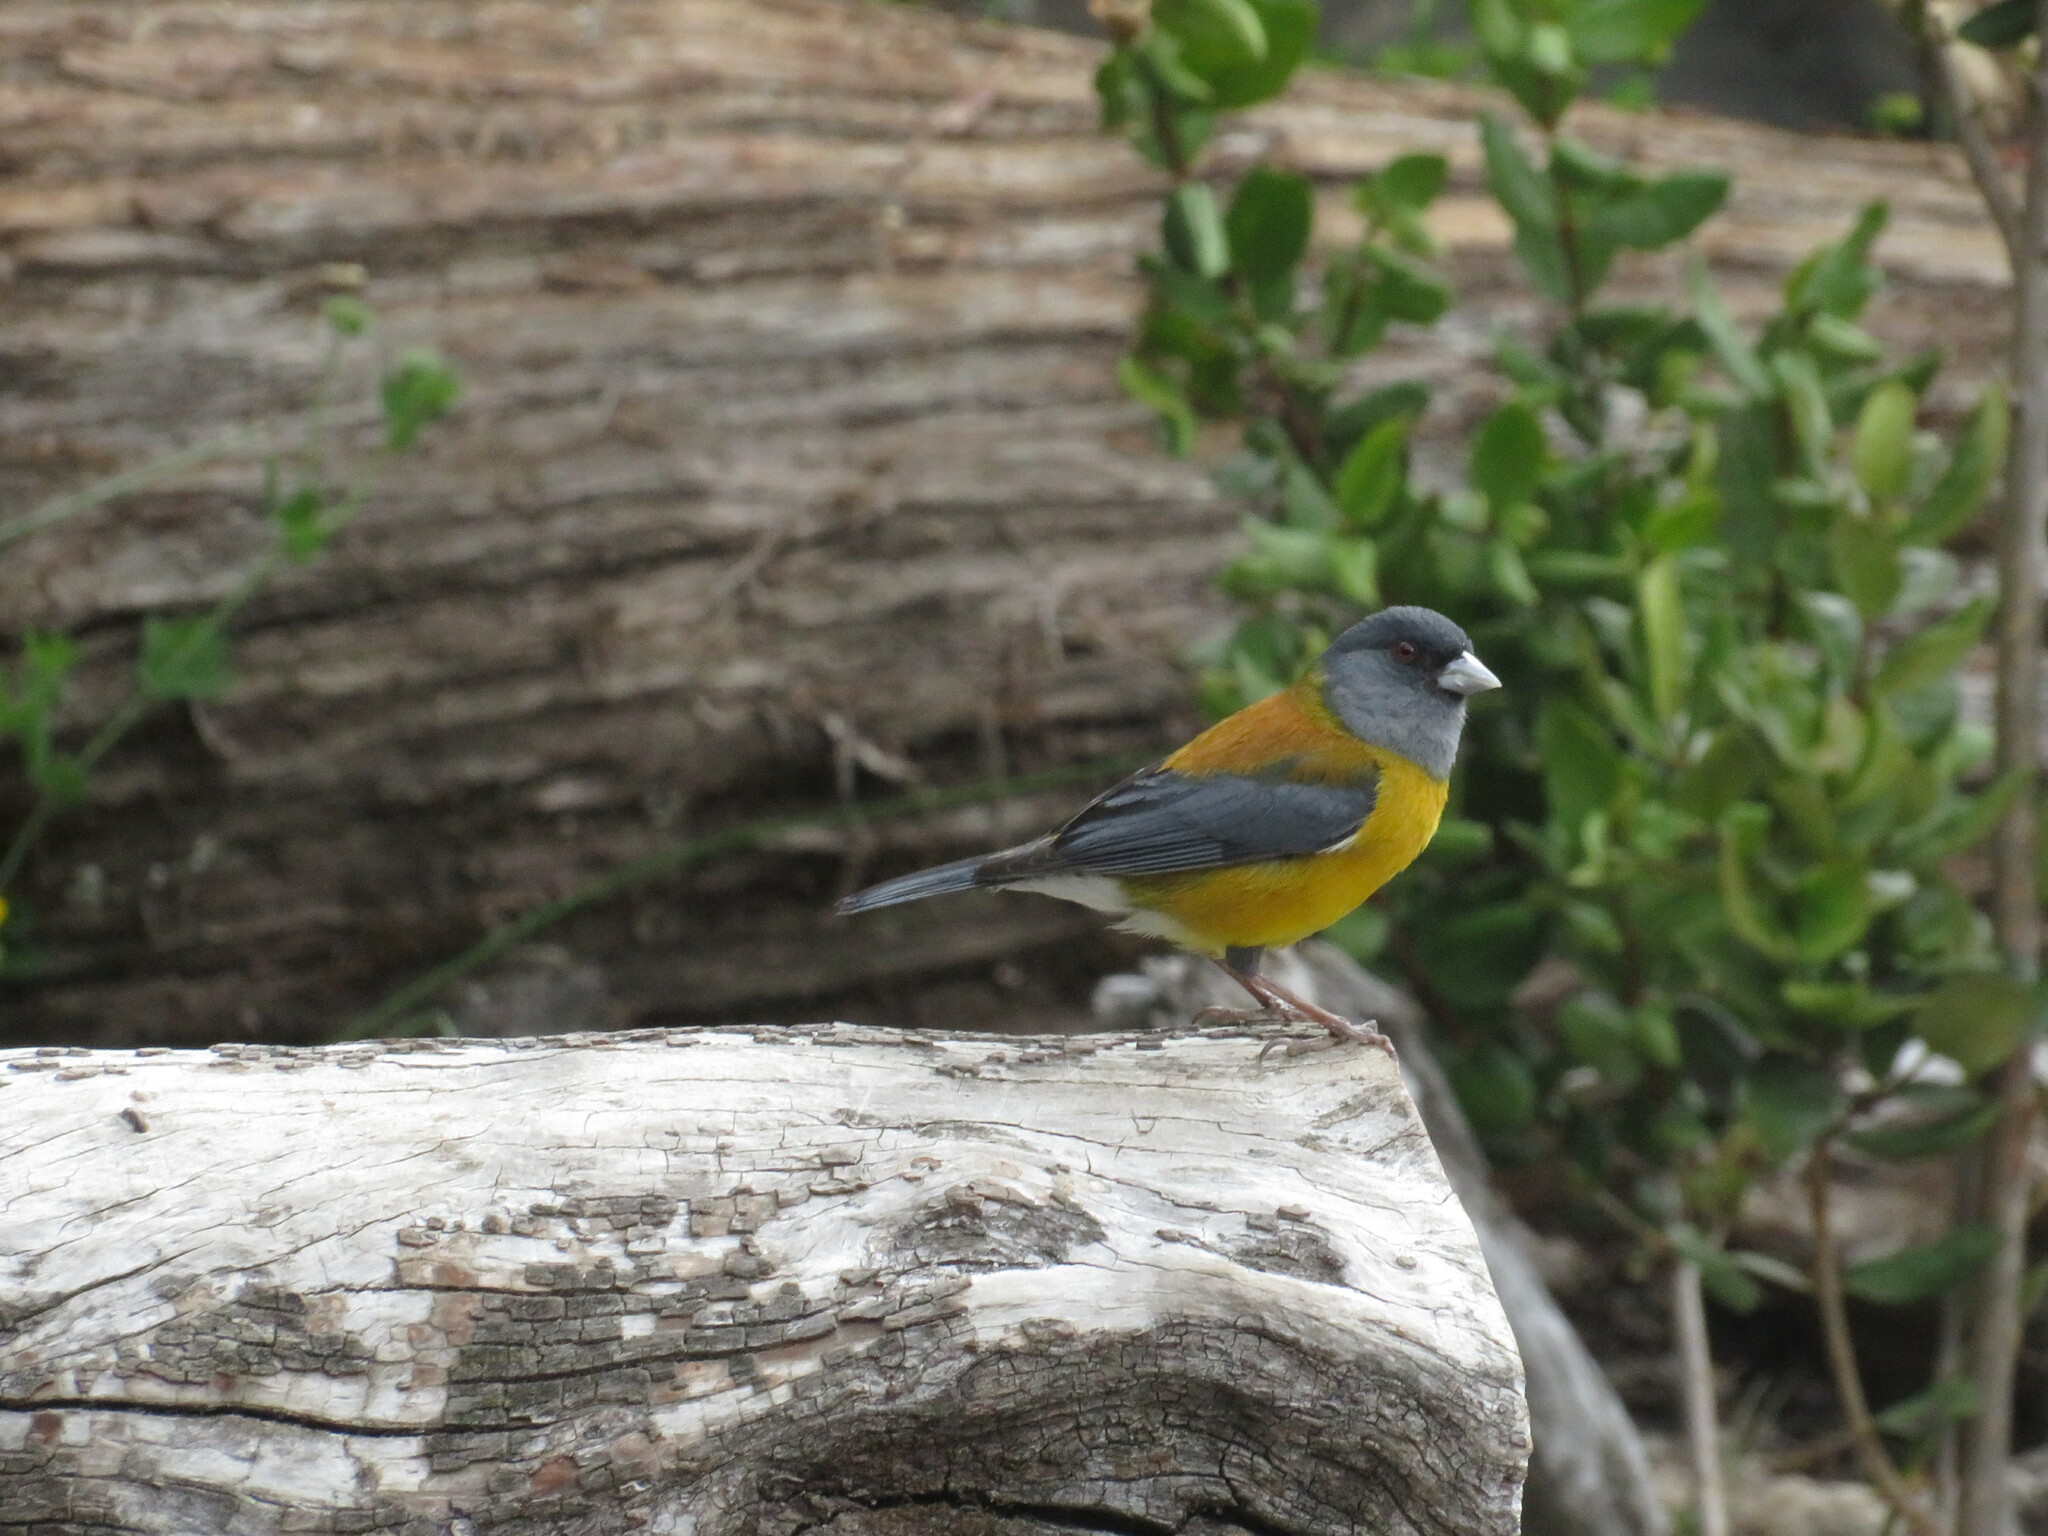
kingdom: Animalia
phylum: Chordata
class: Aves
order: Passeriformes
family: Thraupidae
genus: Phrygilus
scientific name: Phrygilus patagonicus
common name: Patagonian sierra finch
